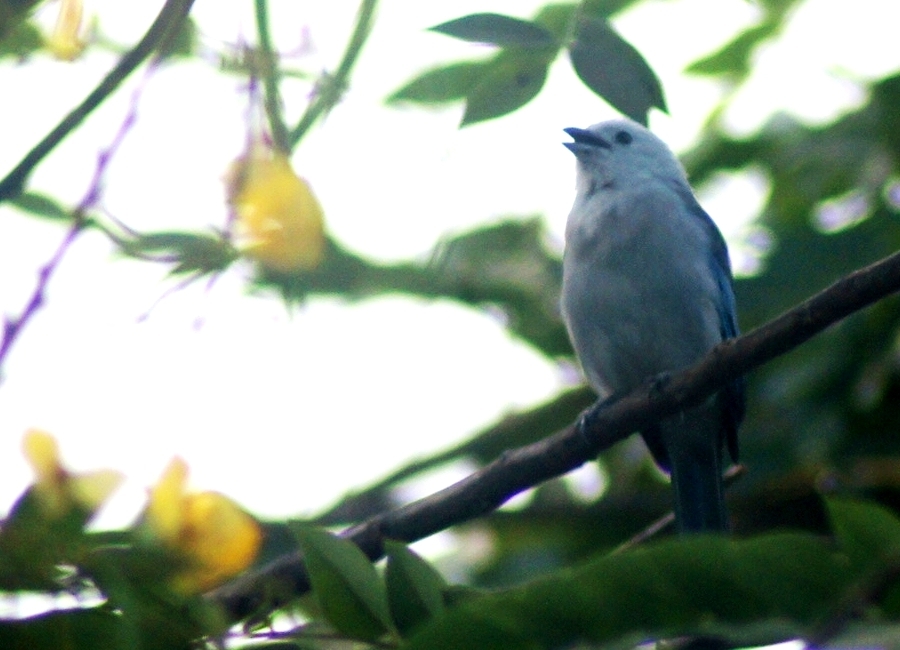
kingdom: Animalia
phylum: Chordata
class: Aves
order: Passeriformes
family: Thraupidae
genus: Thraupis
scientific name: Thraupis episcopus
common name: Blue-grey tanager
